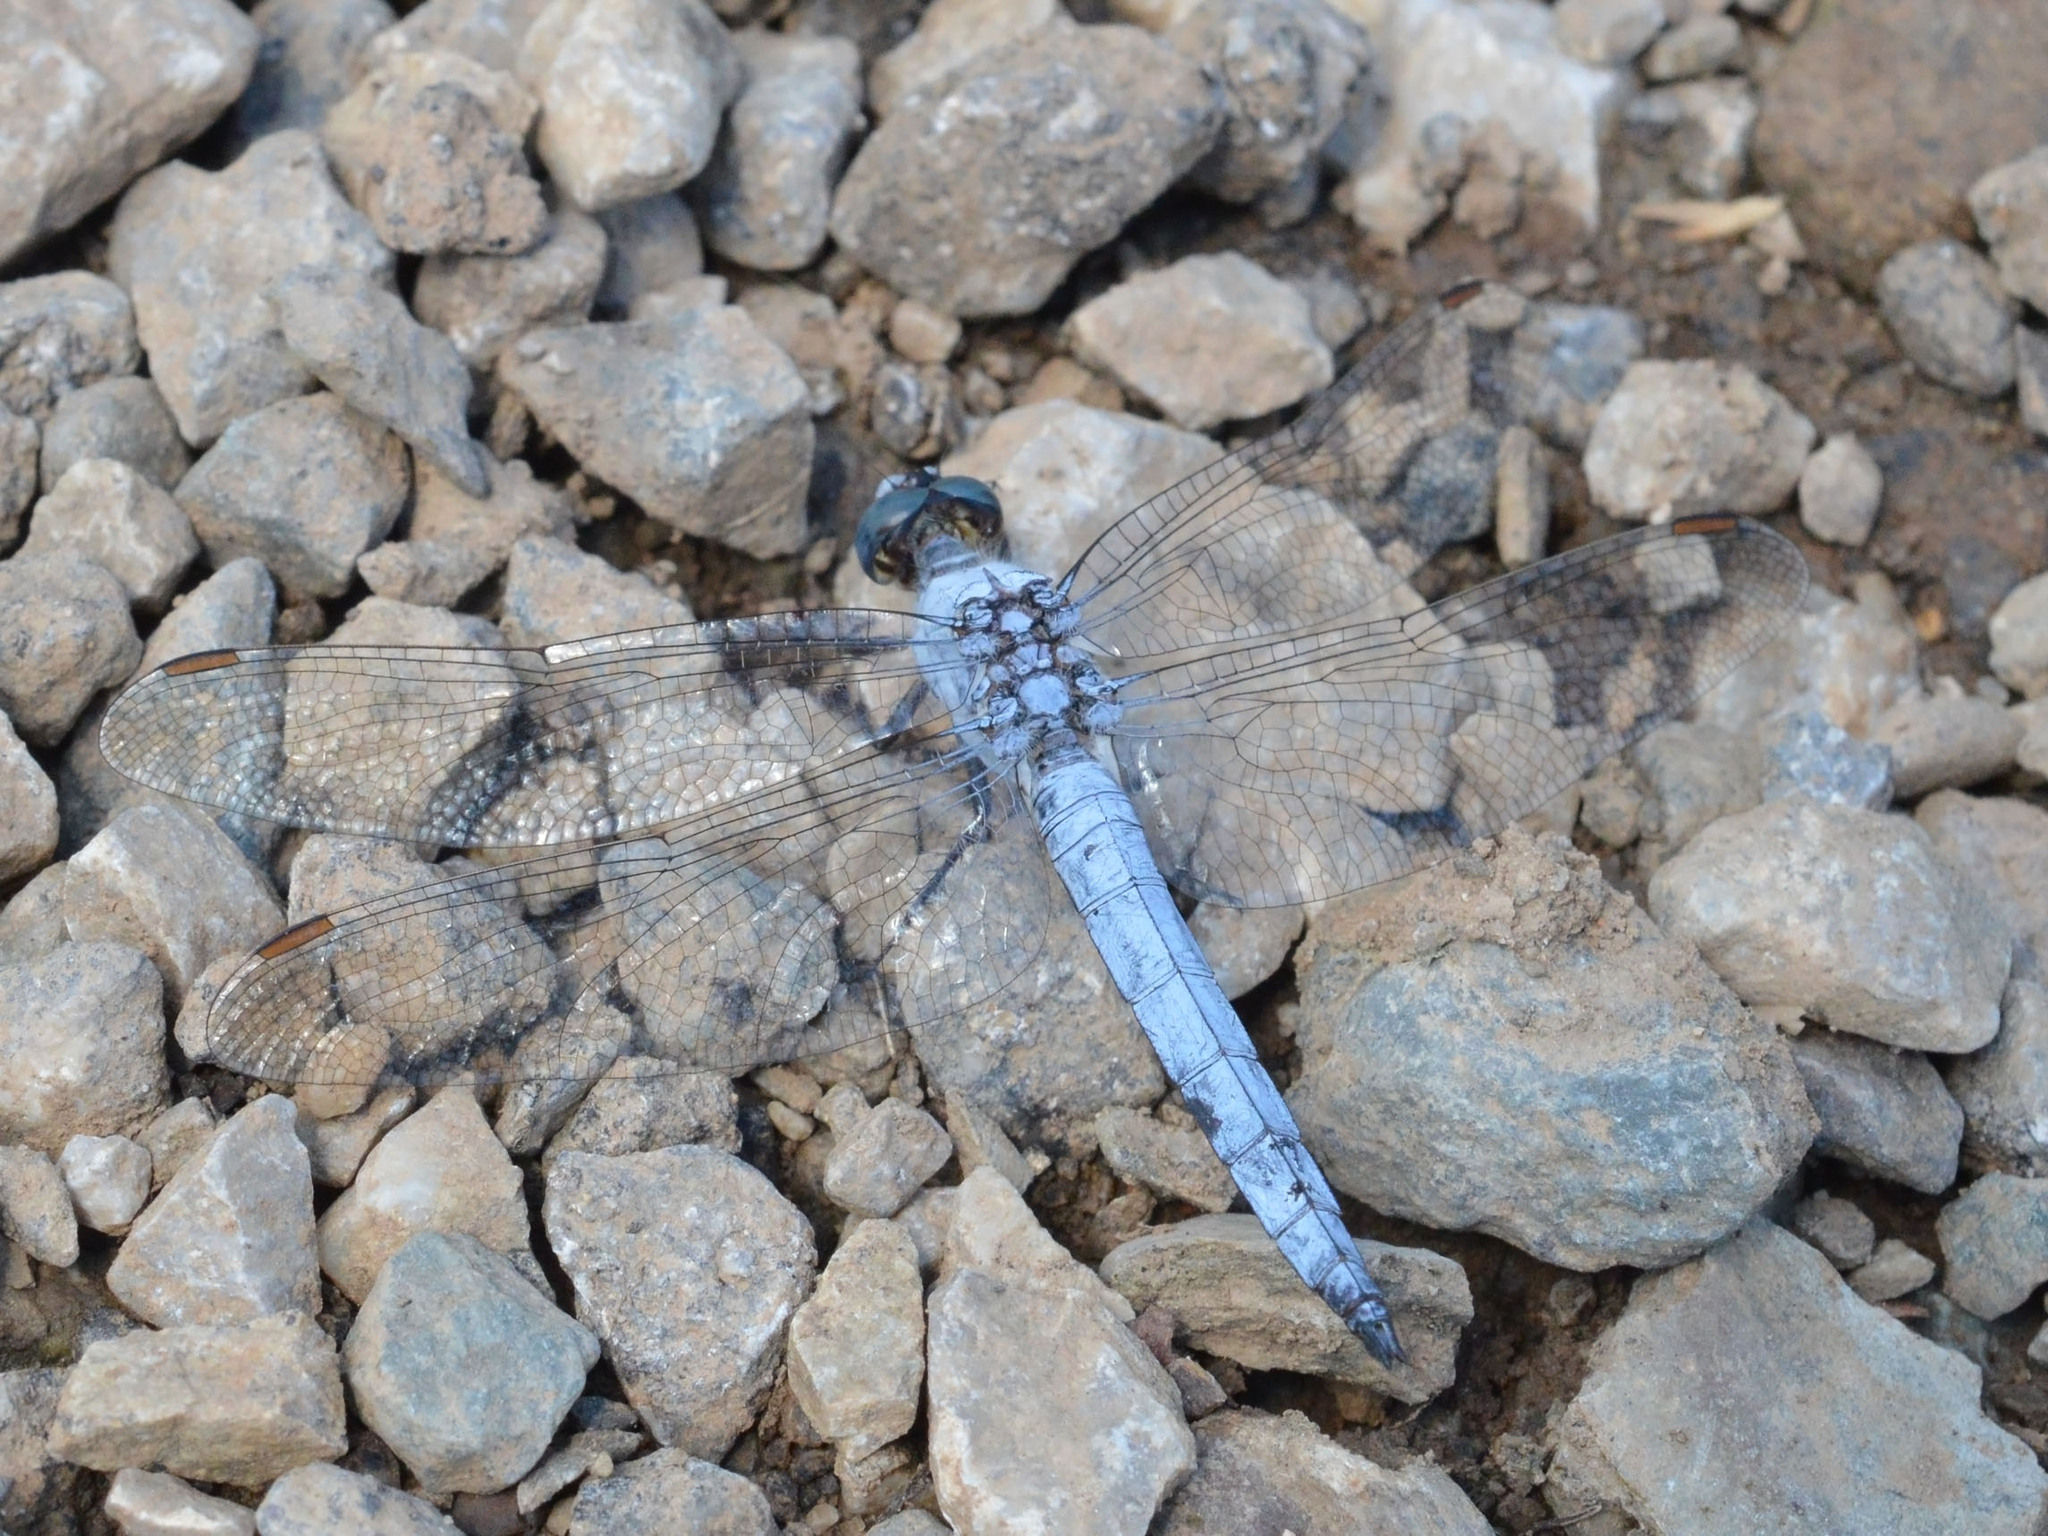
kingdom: Animalia
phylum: Arthropoda
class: Insecta
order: Odonata
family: Libellulidae
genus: Orthetrum
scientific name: Orthetrum brunneum
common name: Southern skimmer
